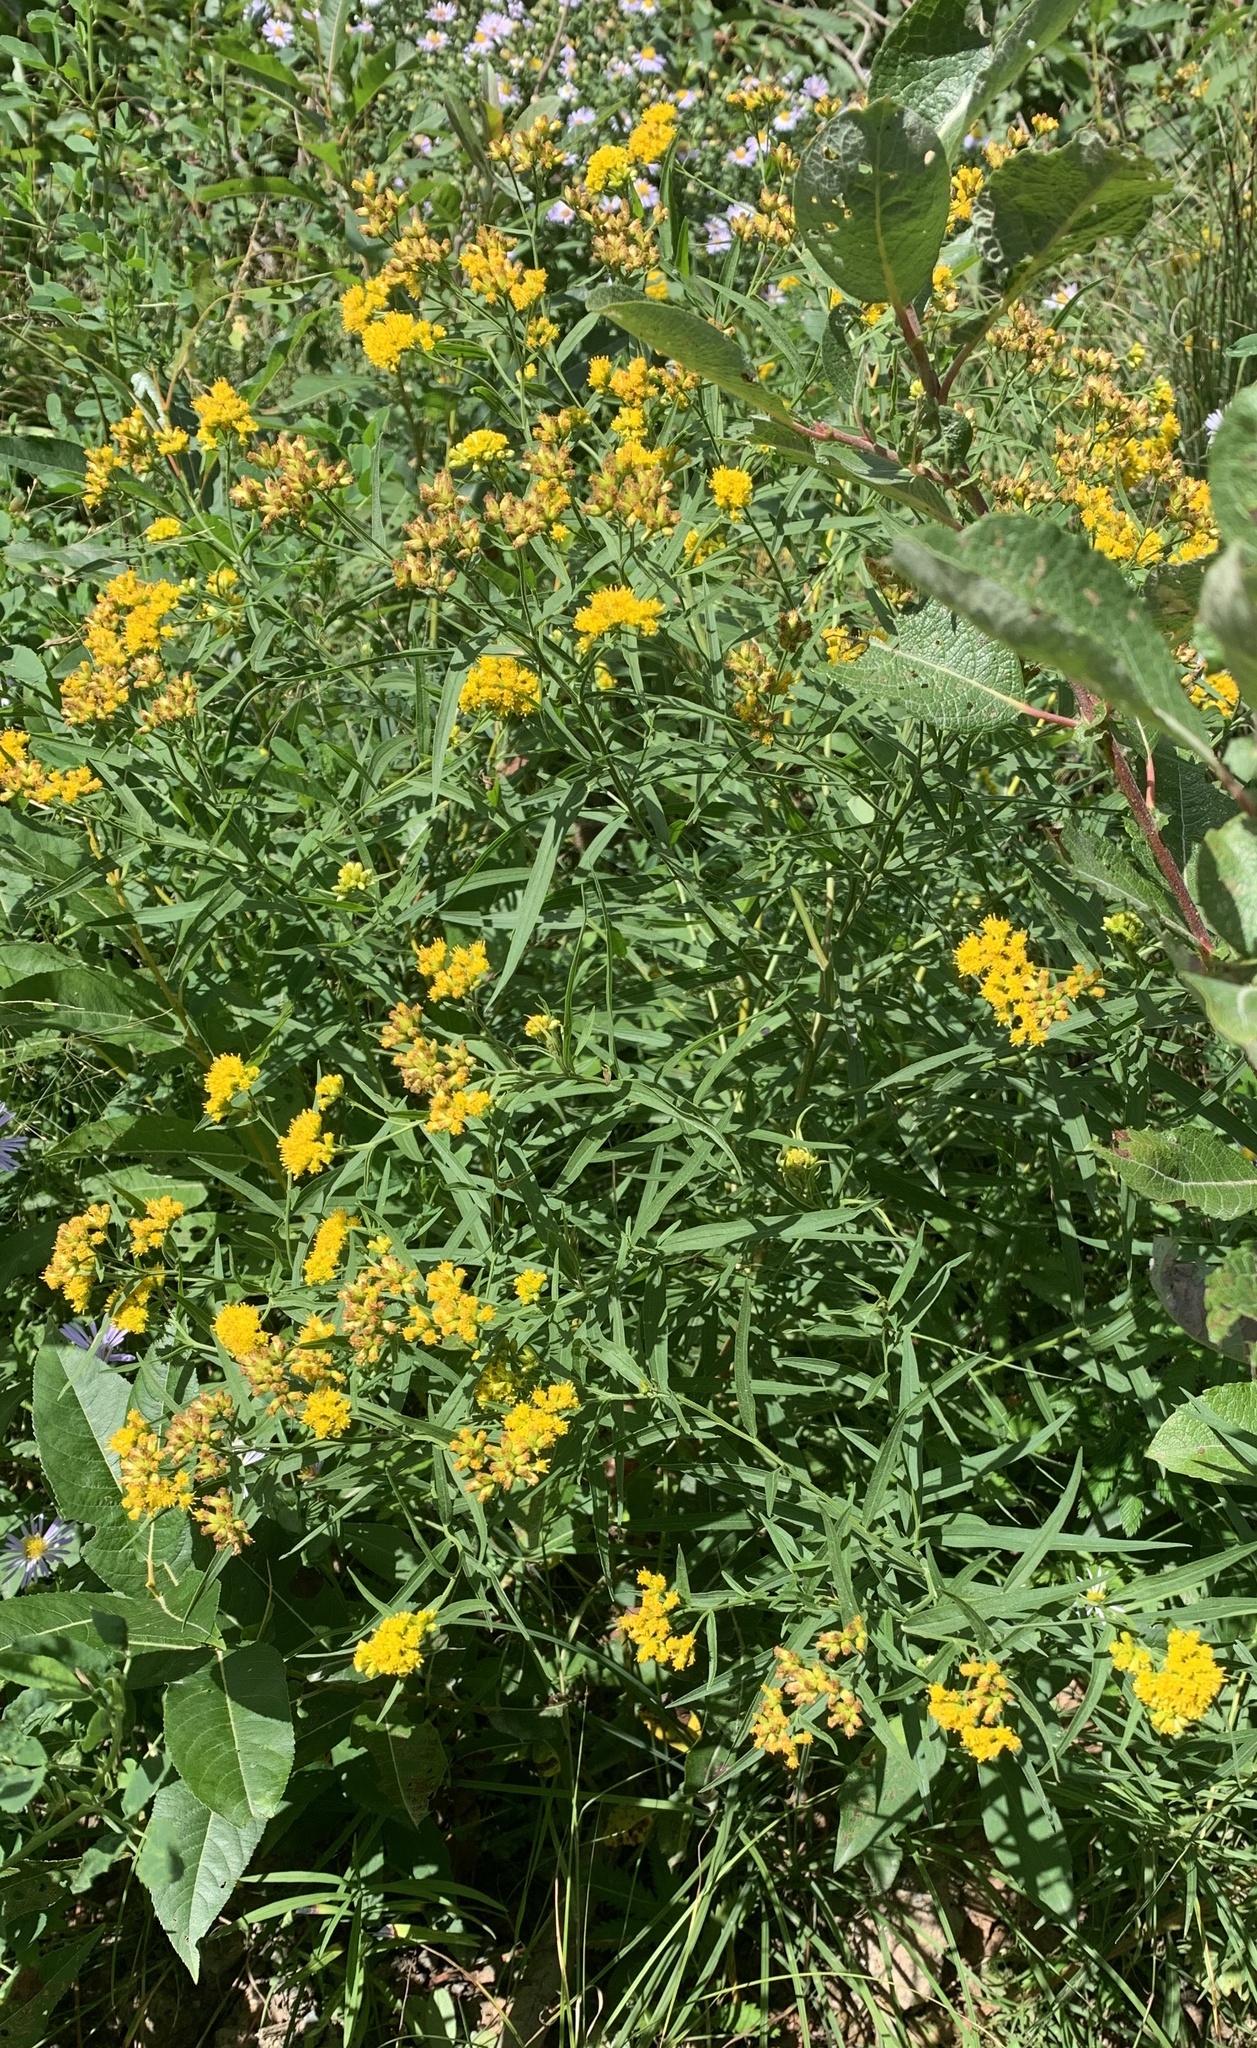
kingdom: Plantae
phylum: Tracheophyta
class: Magnoliopsida
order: Asterales
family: Asteraceae
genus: Euthamia
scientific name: Euthamia graminifolia
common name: Common goldentop
